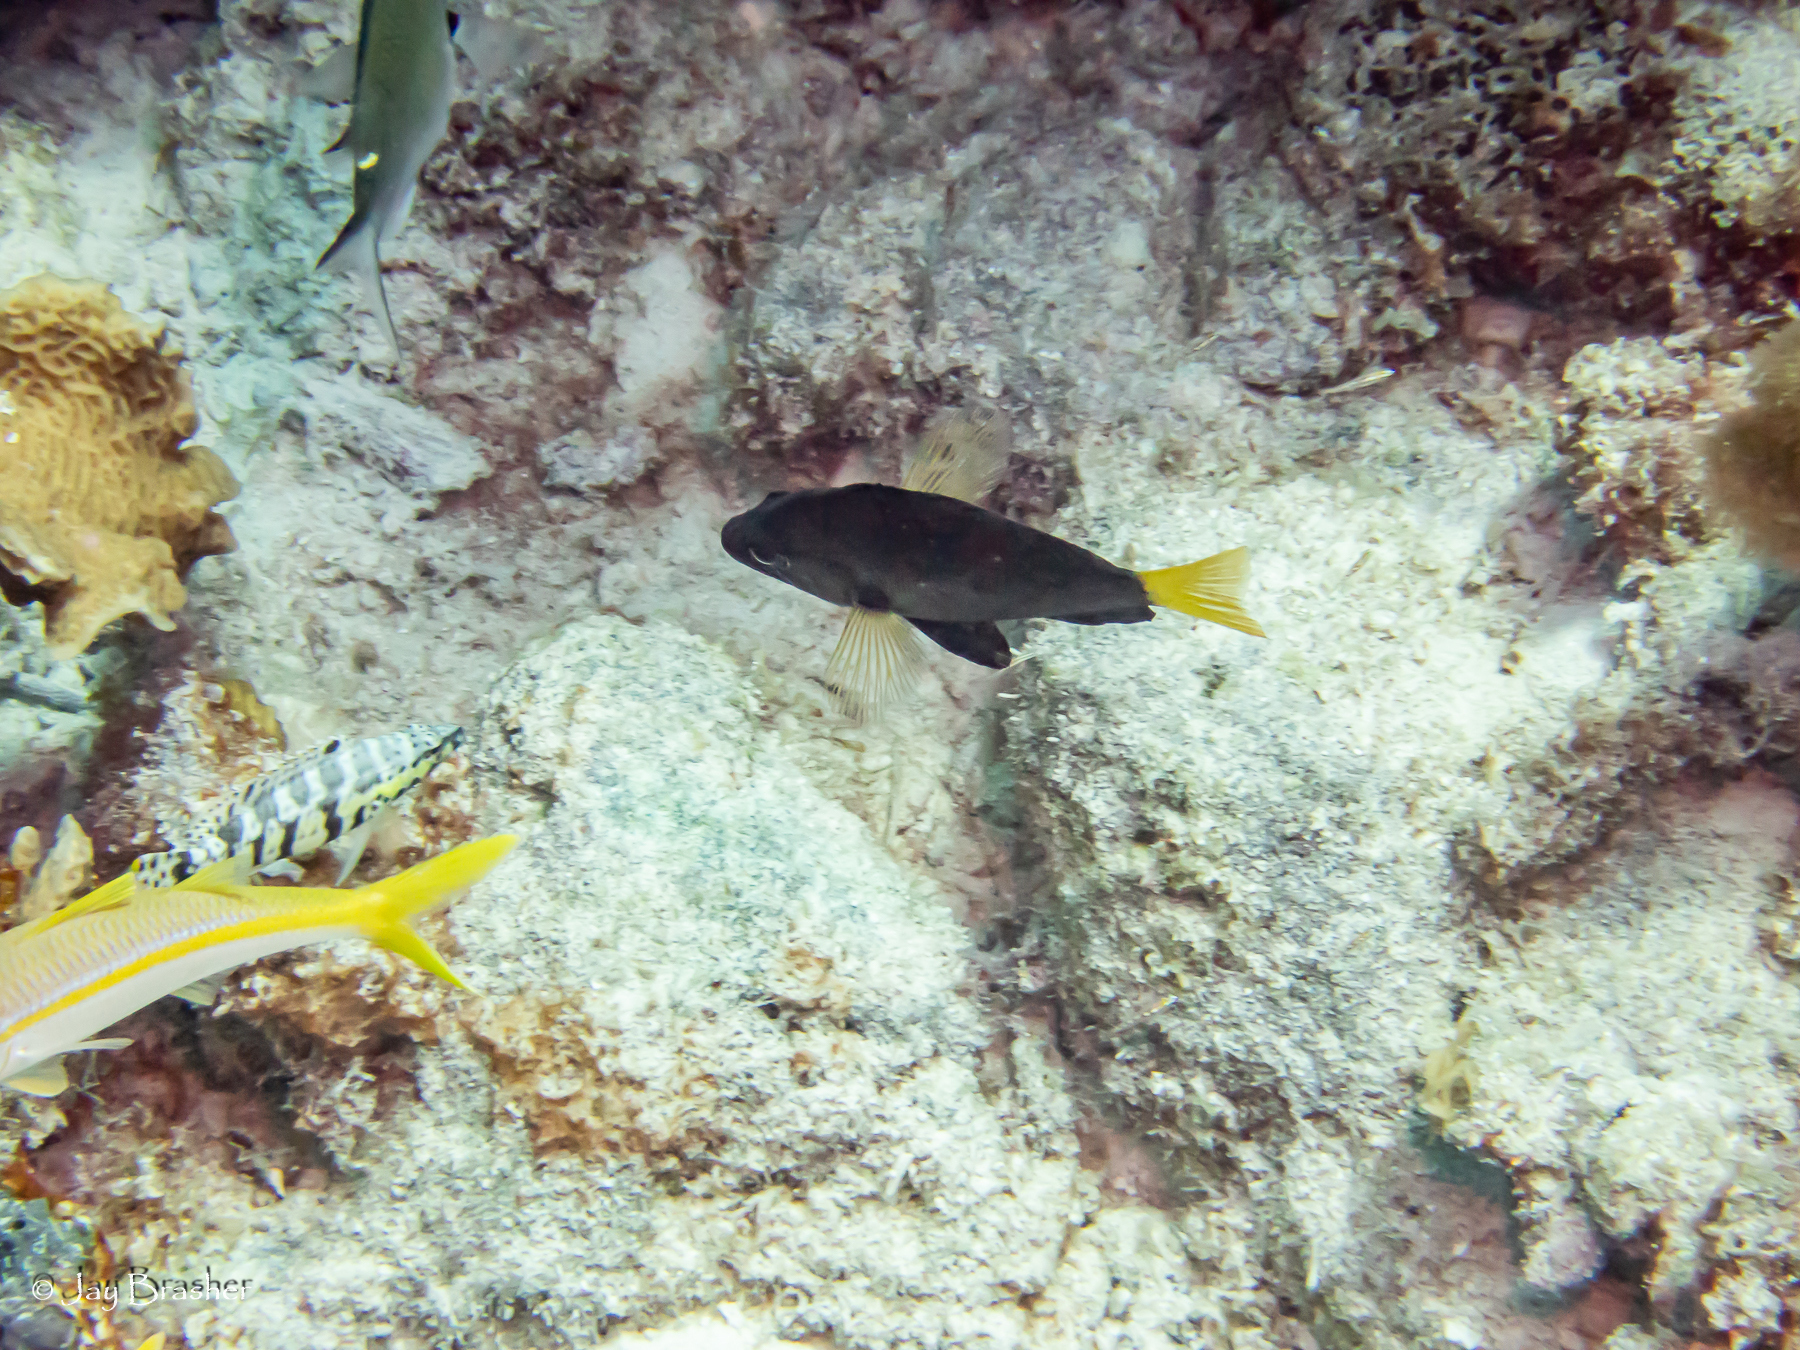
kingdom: Animalia
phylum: Chordata
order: Perciformes
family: Serranidae
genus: Hypoplectrus
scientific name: Hypoplectrus chlorurus
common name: Yellowtail hamlet
